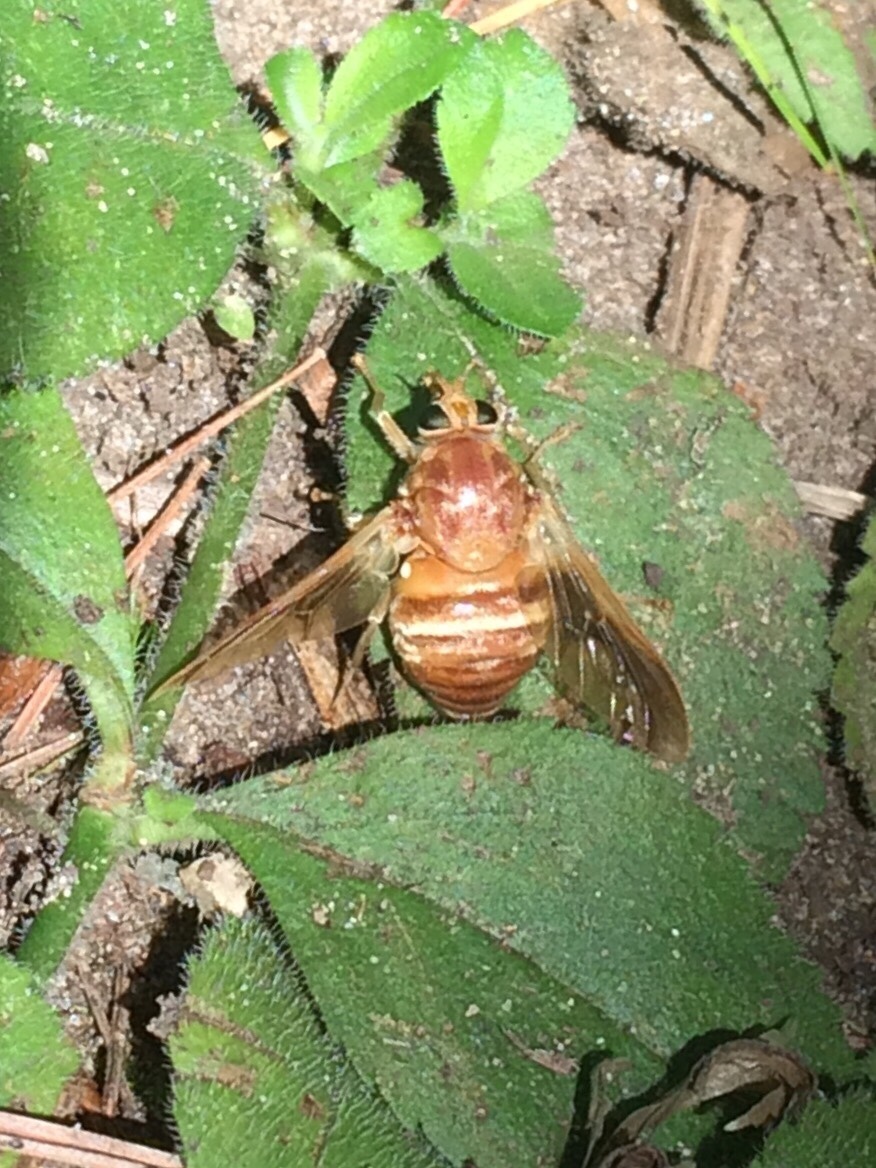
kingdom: Animalia
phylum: Arthropoda
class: Insecta
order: Diptera
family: Tabanidae
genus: Goniops
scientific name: Goniops chrysocoma
